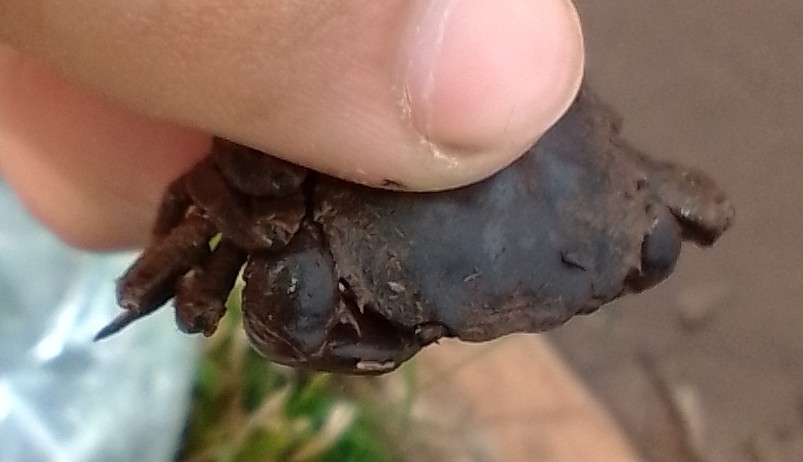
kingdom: Animalia
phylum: Arthropoda
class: Malacostraca
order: Decapoda
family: Trichodactylidae
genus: Trichodactylus
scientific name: Trichodactylus kensleyi
